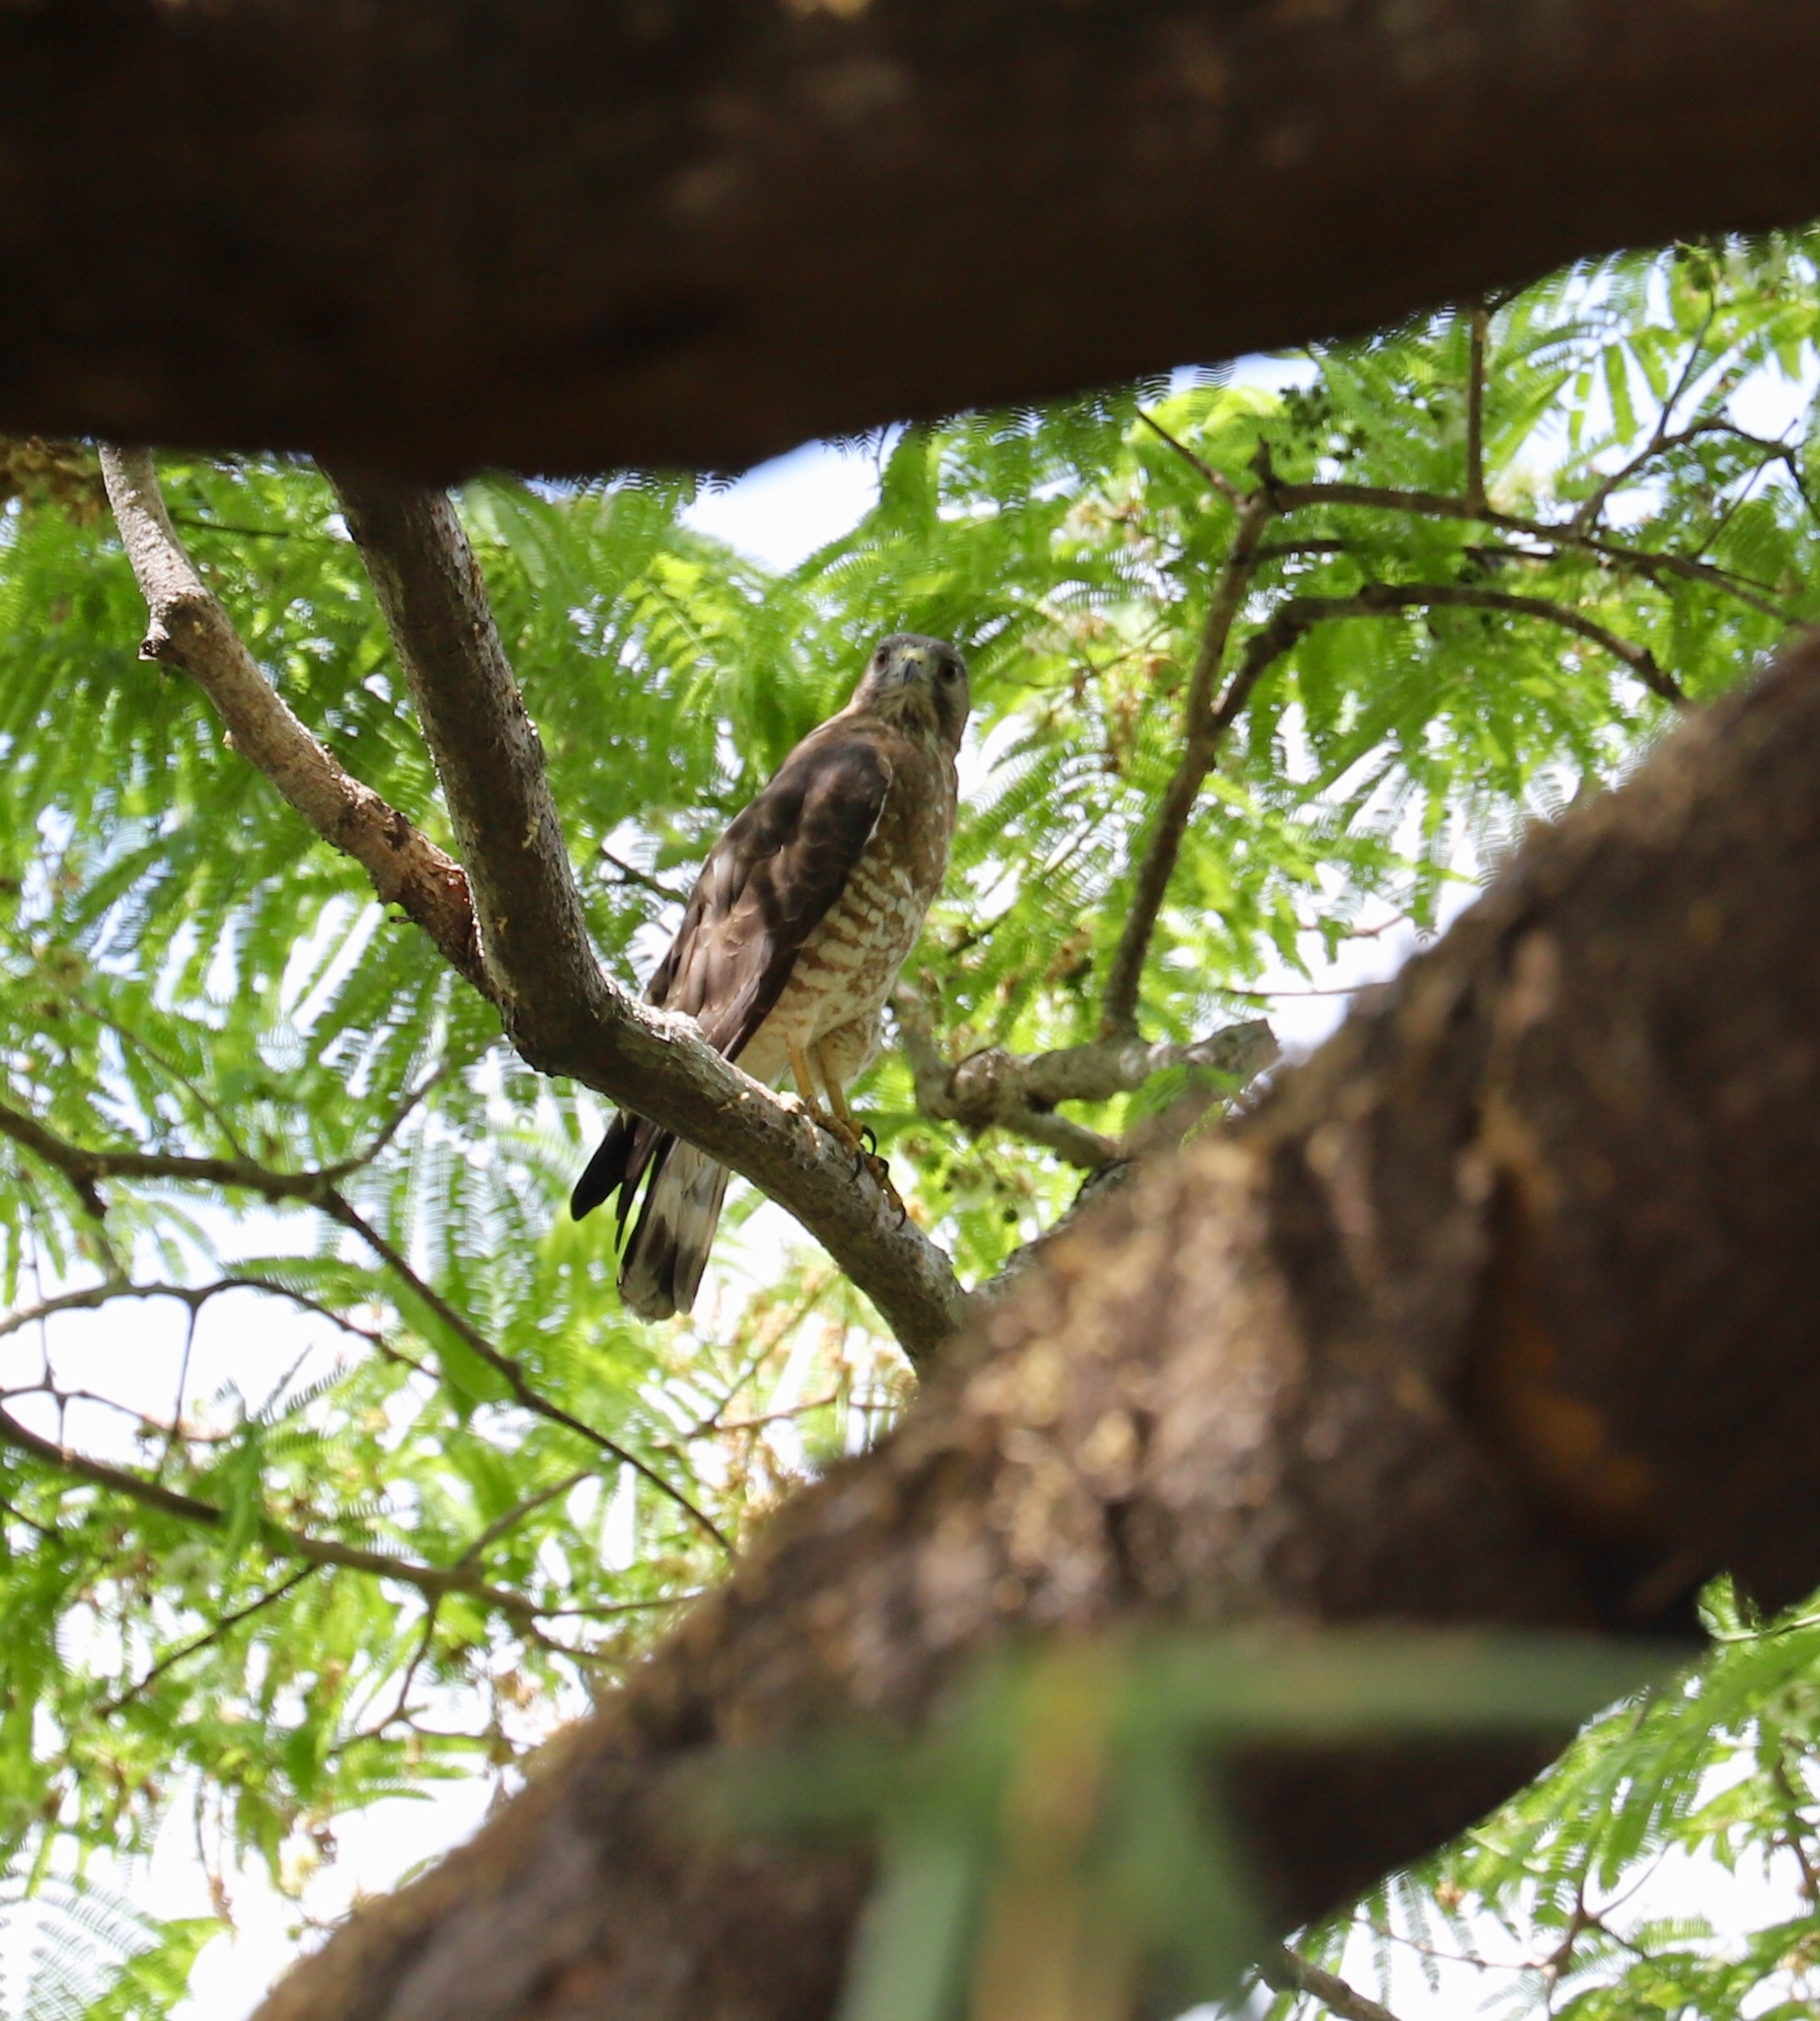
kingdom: Animalia
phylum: Chordata
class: Aves
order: Accipitriformes
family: Accipitridae
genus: Buteo
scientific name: Buteo platypterus
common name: Broad-winged hawk
